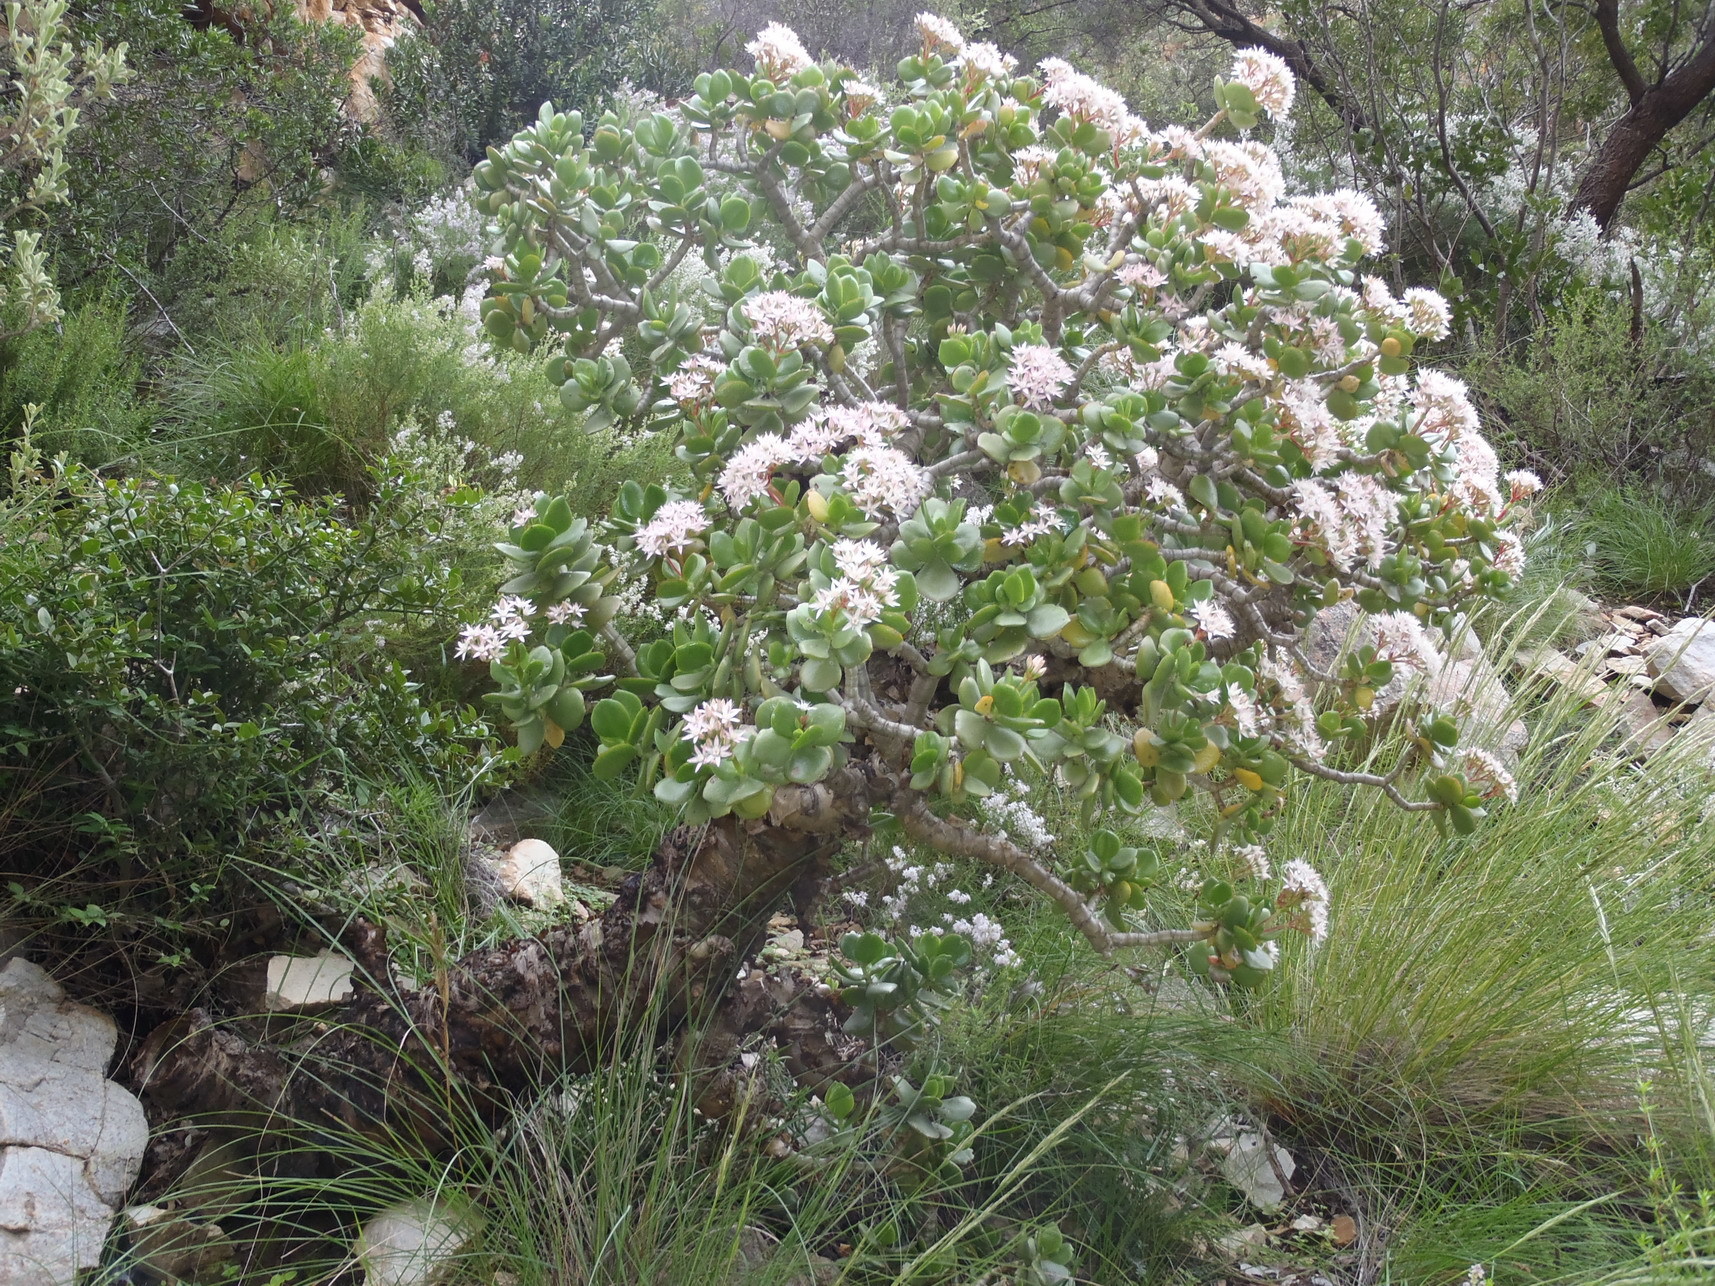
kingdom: Plantae
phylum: Tracheophyta
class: Magnoliopsida
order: Saxifragales
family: Crassulaceae
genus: Crassula
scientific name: Crassula ovata
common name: Jade plant
